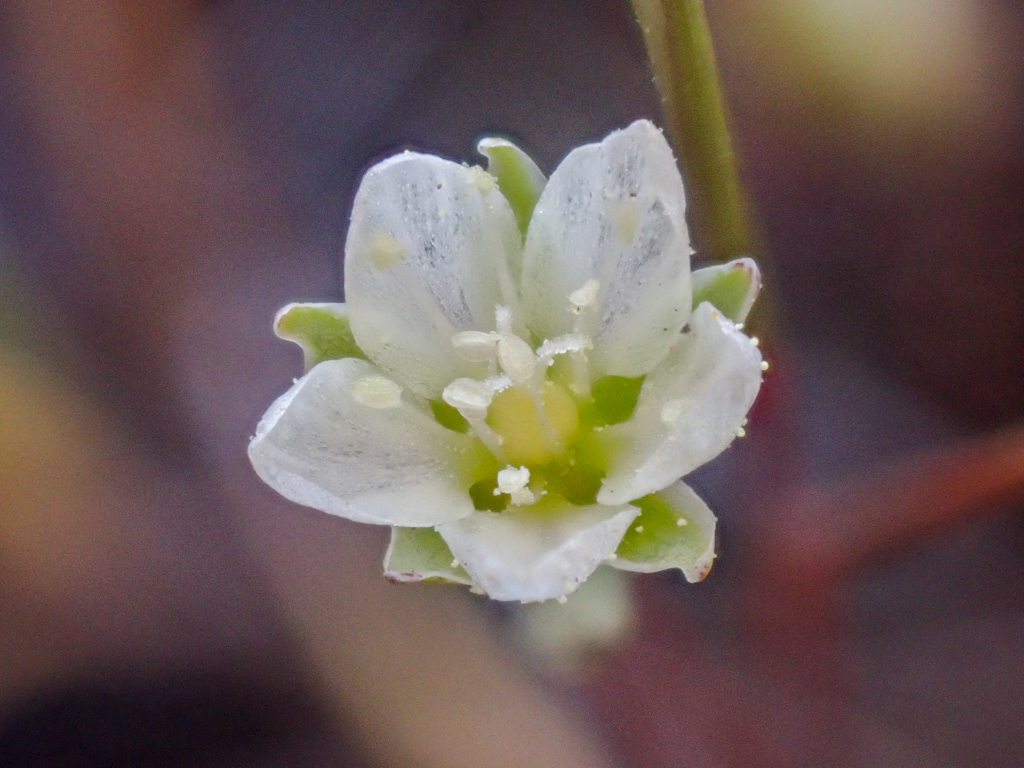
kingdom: Plantae
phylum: Tracheophyta
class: Magnoliopsida
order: Caryophyllales
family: Caryophyllaceae
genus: Sabulina
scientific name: Sabulina californica
